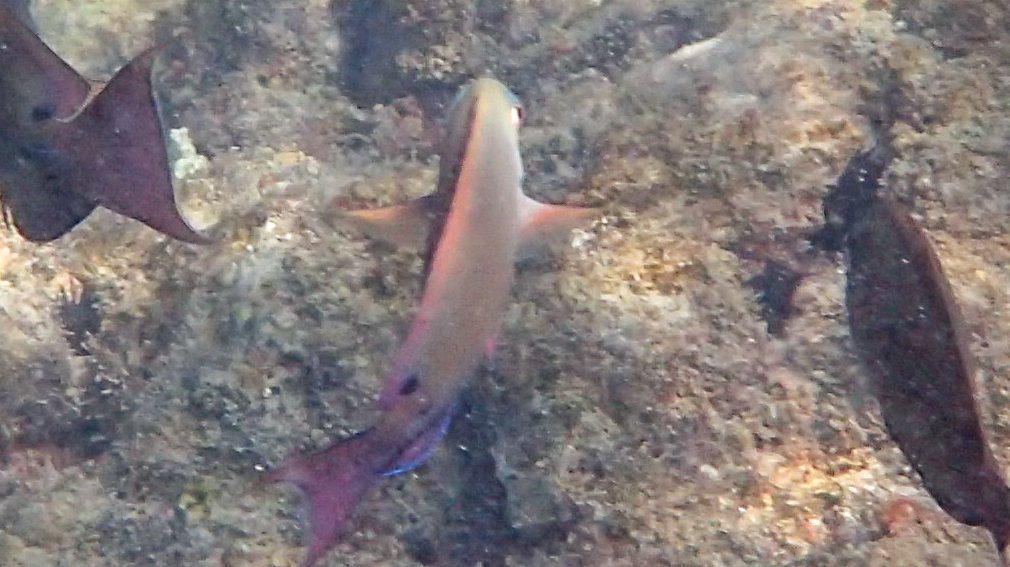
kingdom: Animalia
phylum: Chordata
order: Perciformes
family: Acanthuridae
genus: Acanthurus
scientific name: Acanthurus nigrofuscus
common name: Blackspot surgeonfish
